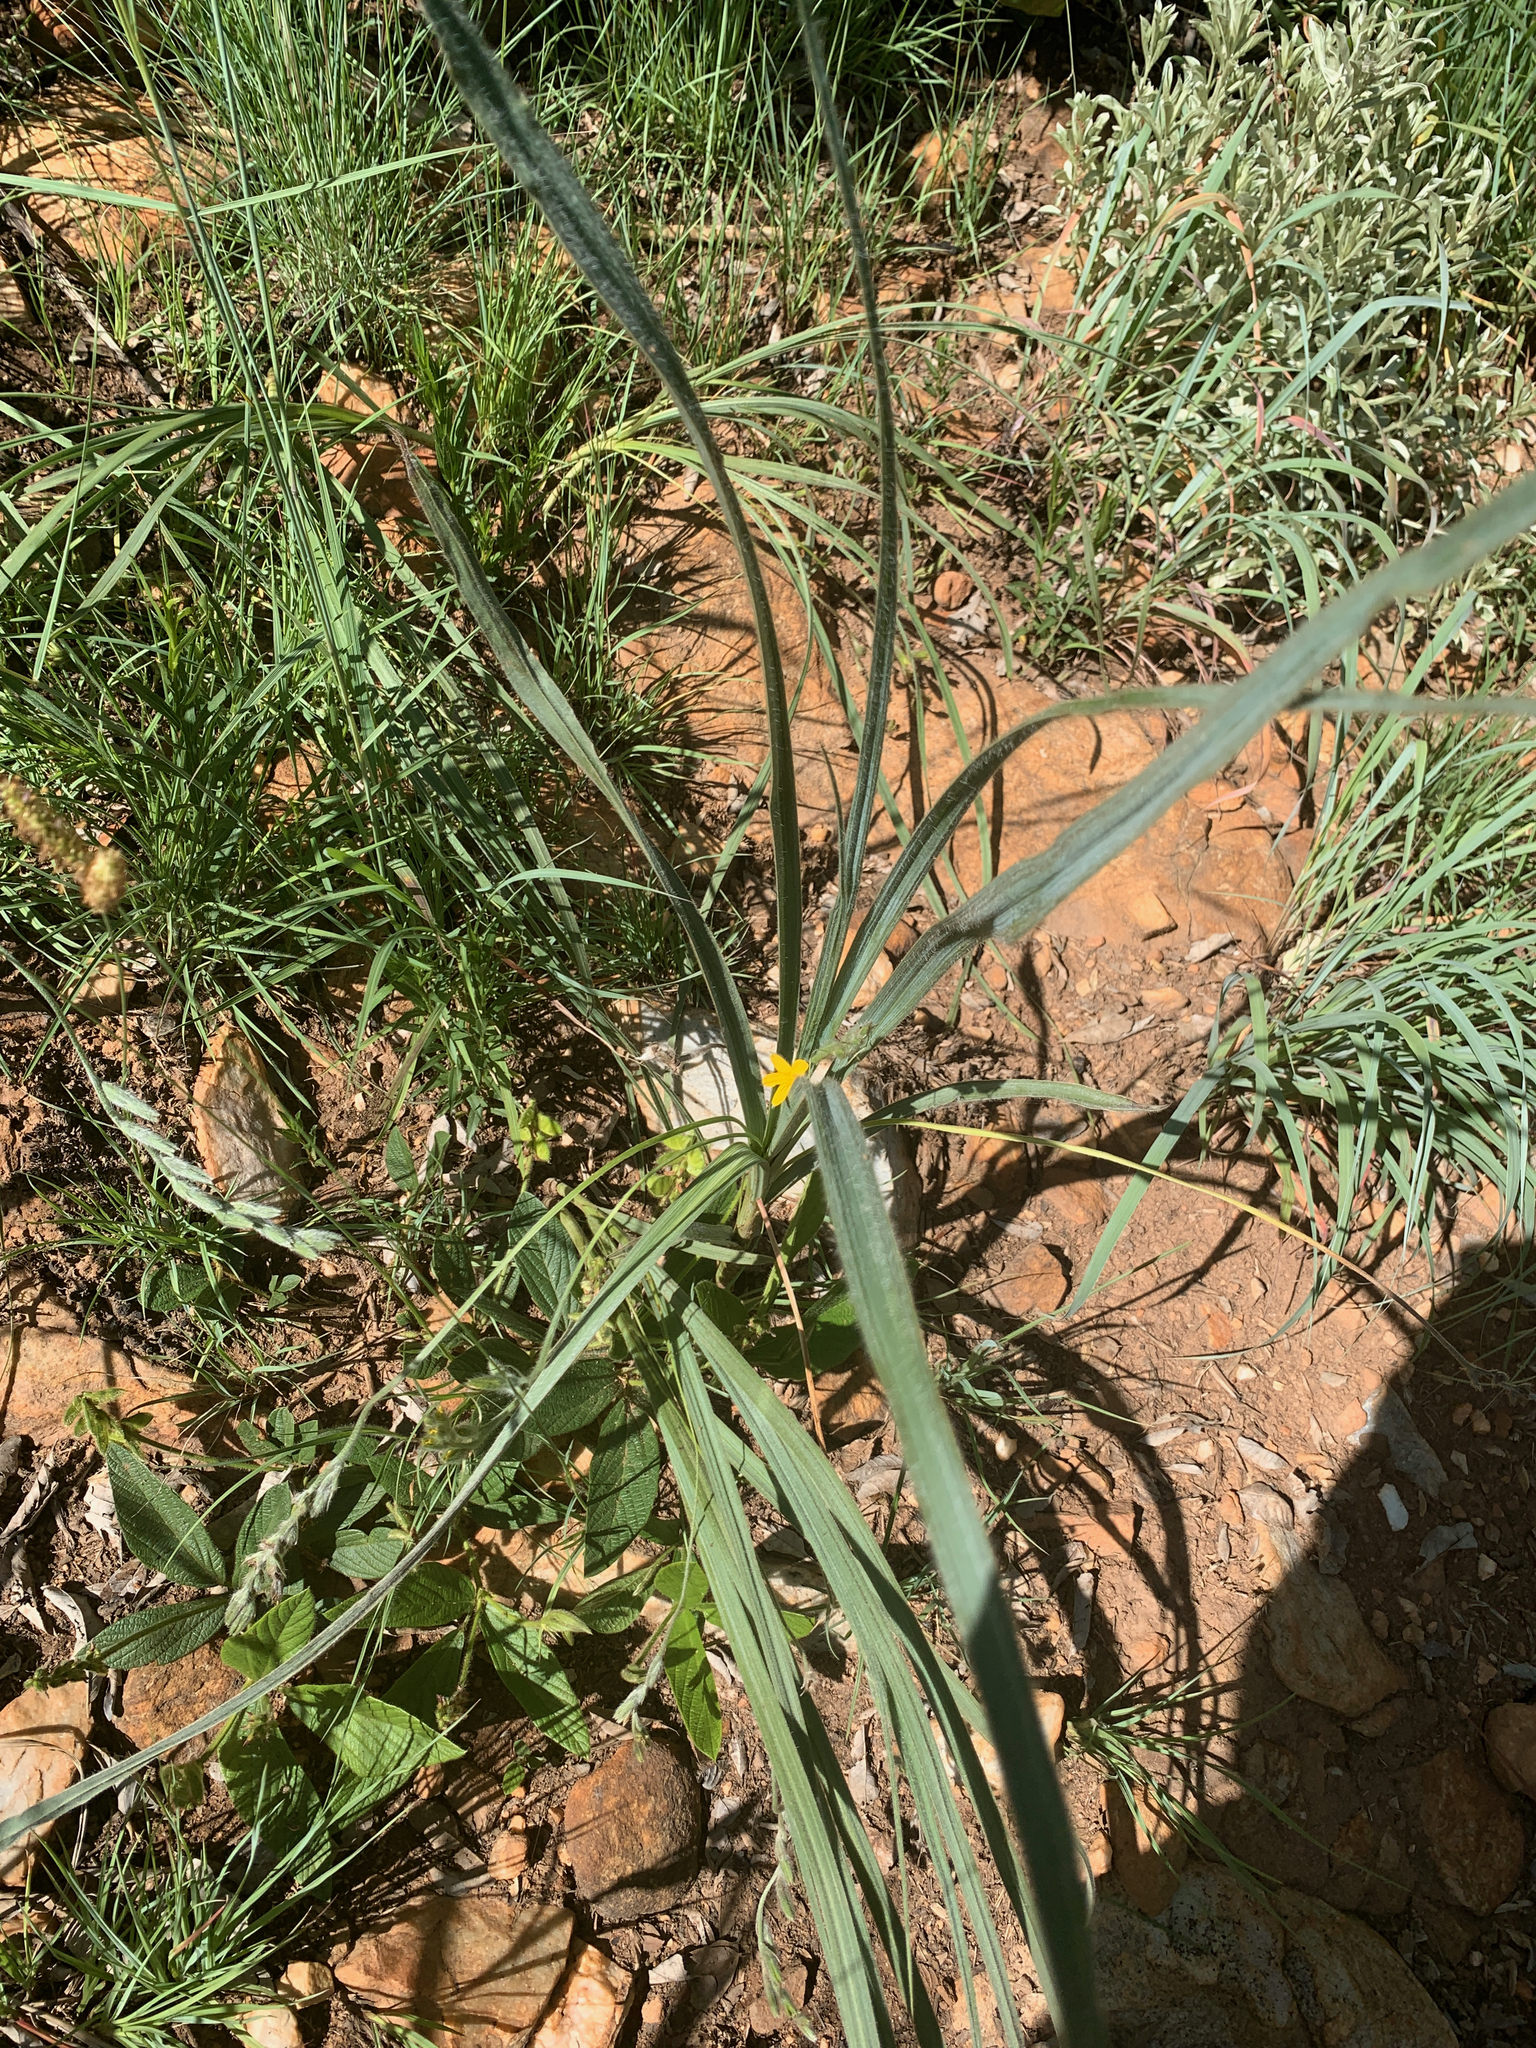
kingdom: Plantae
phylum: Tracheophyta
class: Liliopsida
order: Asparagales
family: Hypoxidaceae
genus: Hypoxis
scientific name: Hypoxis rigidula
